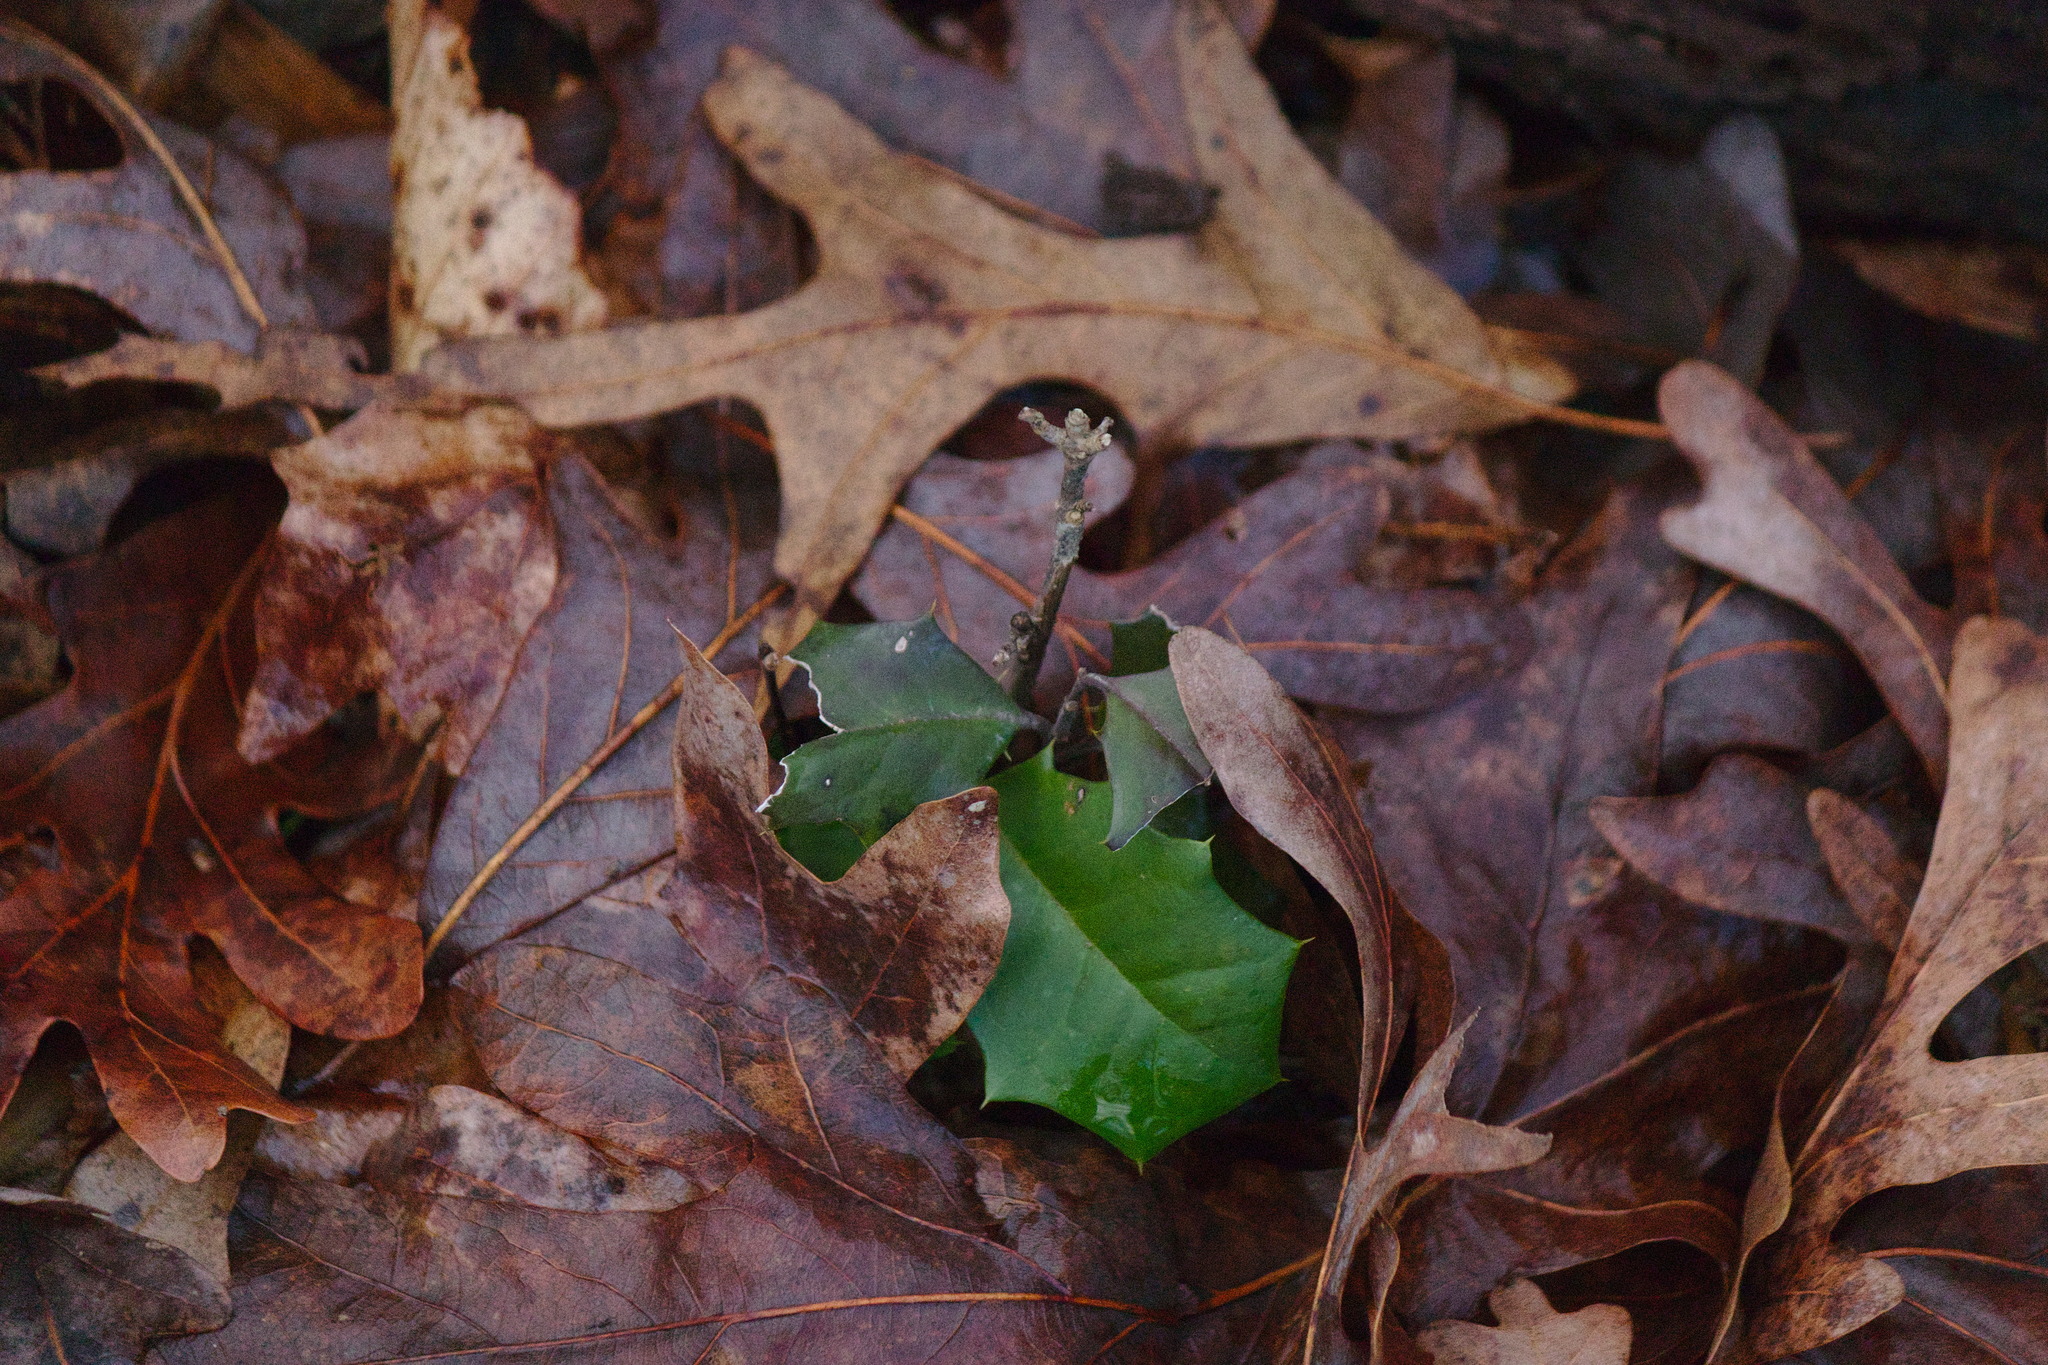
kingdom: Plantae
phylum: Tracheophyta
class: Magnoliopsida
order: Aquifoliales
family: Aquifoliaceae
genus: Ilex
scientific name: Ilex opaca
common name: American holly
